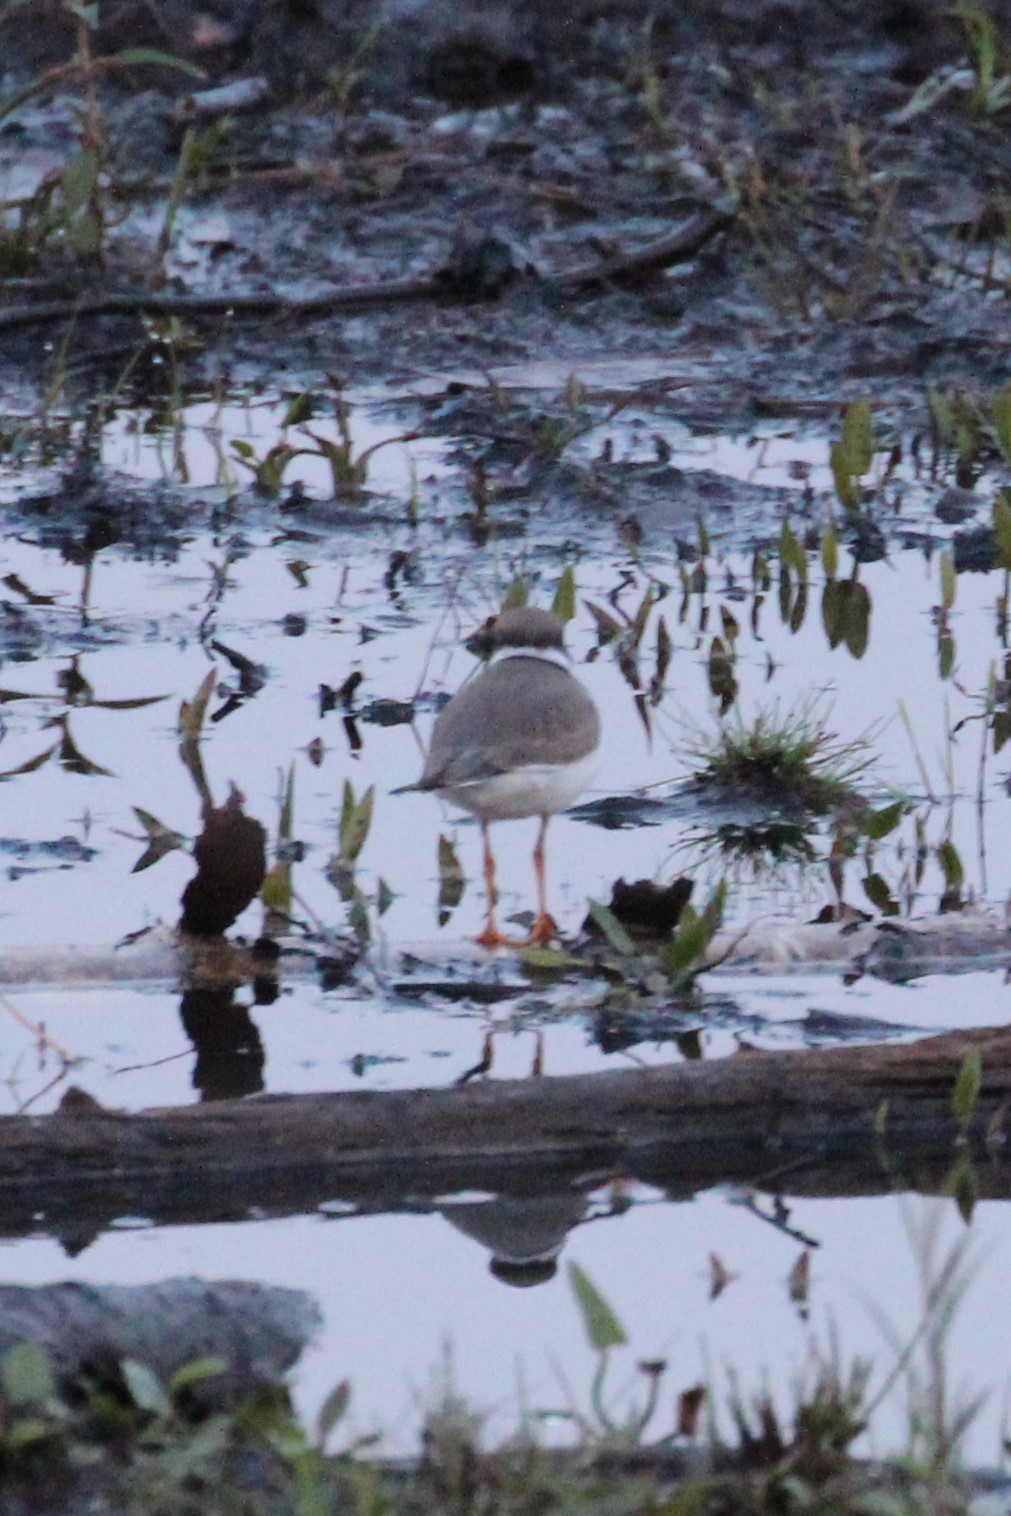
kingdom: Animalia
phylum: Chordata
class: Aves
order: Charadriiformes
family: Charadriidae
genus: Charadrius
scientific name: Charadrius semipalmatus
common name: Semipalmated plover
